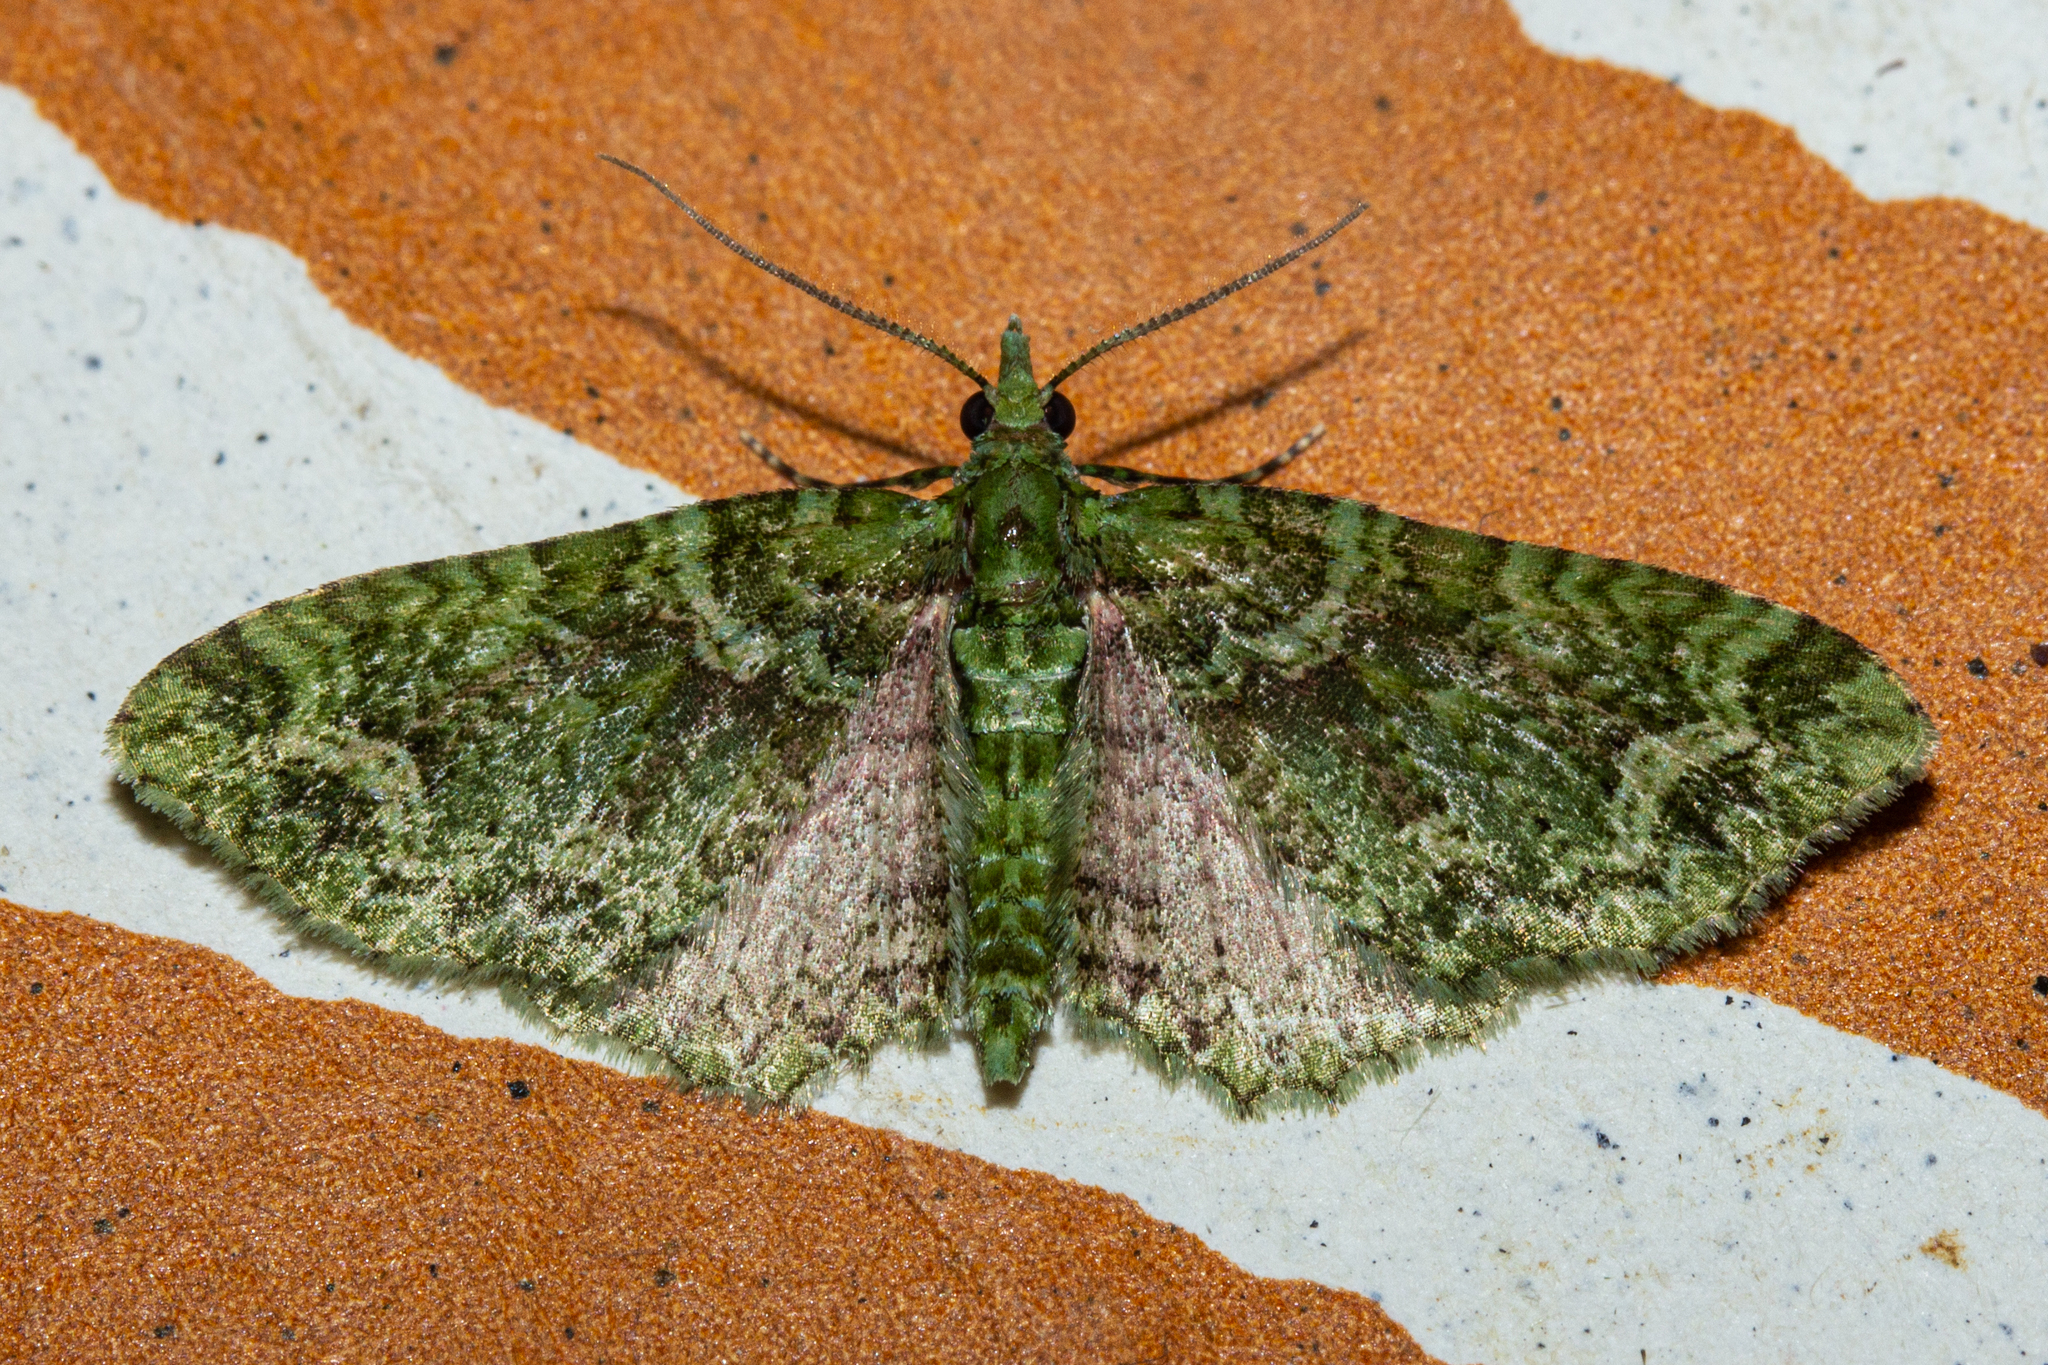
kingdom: Animalia
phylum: Arthropoda
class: Insecta
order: Lepidoptera
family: Geometridae
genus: Pasiphila
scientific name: Pasiphila muscosata
